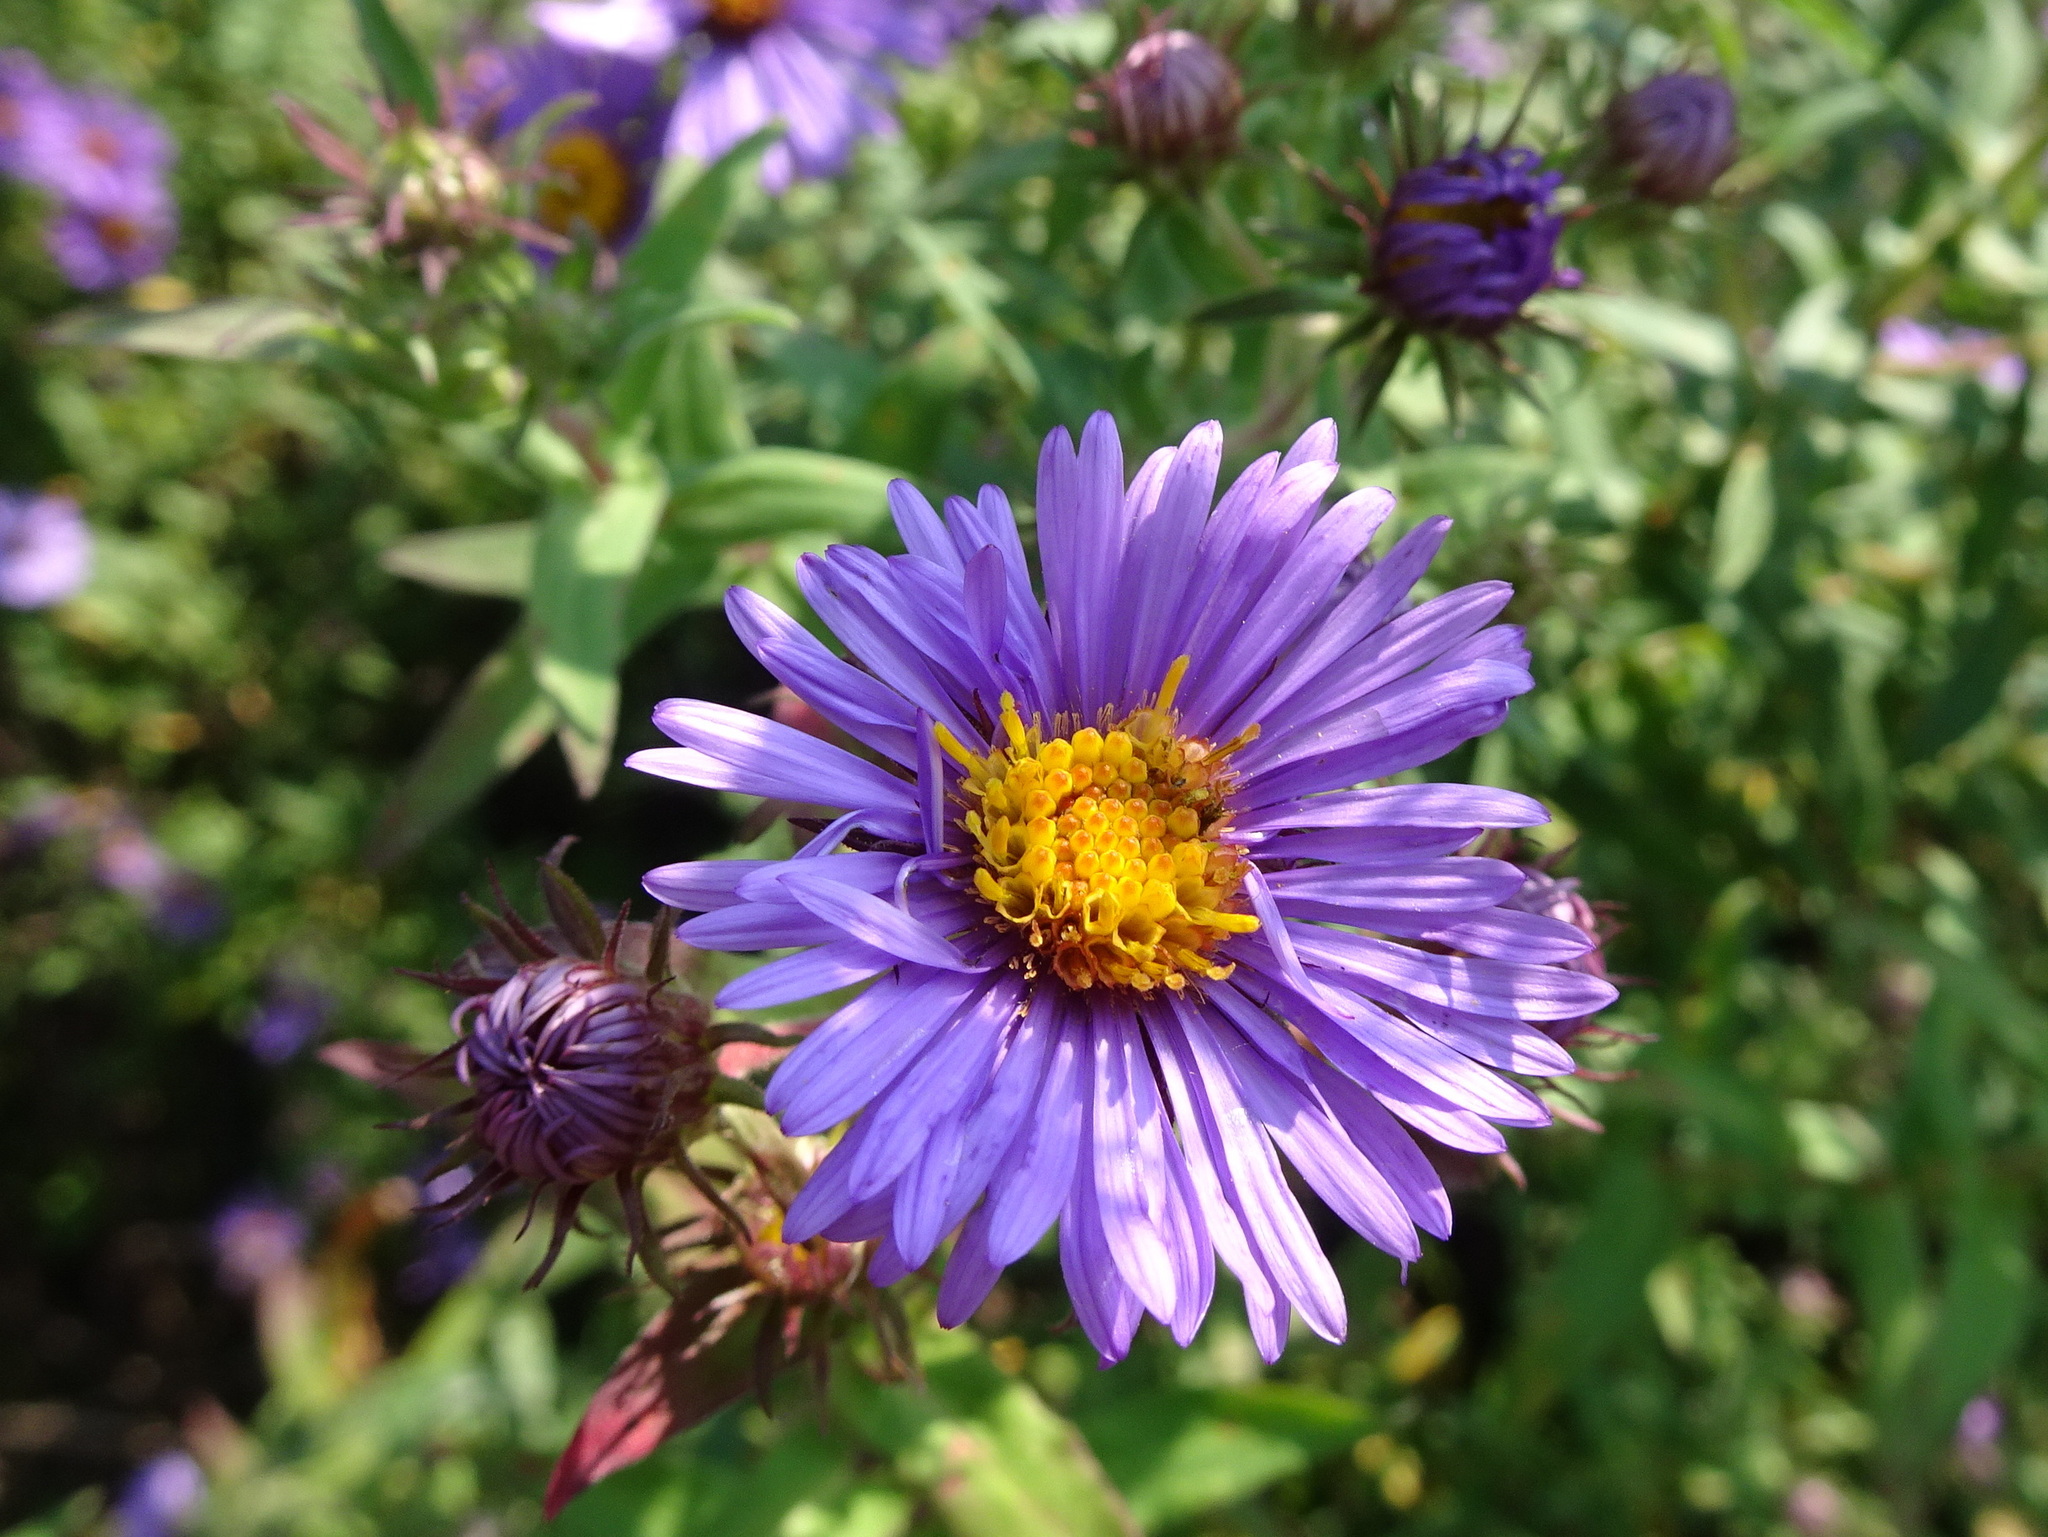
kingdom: Plantae
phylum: Tracheophyta
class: Magnoliopsida
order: Asterales
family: Asteraceae
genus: Symphyotrichum
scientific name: Symphyotrichum novae-angliae
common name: Michaelmas daisy
